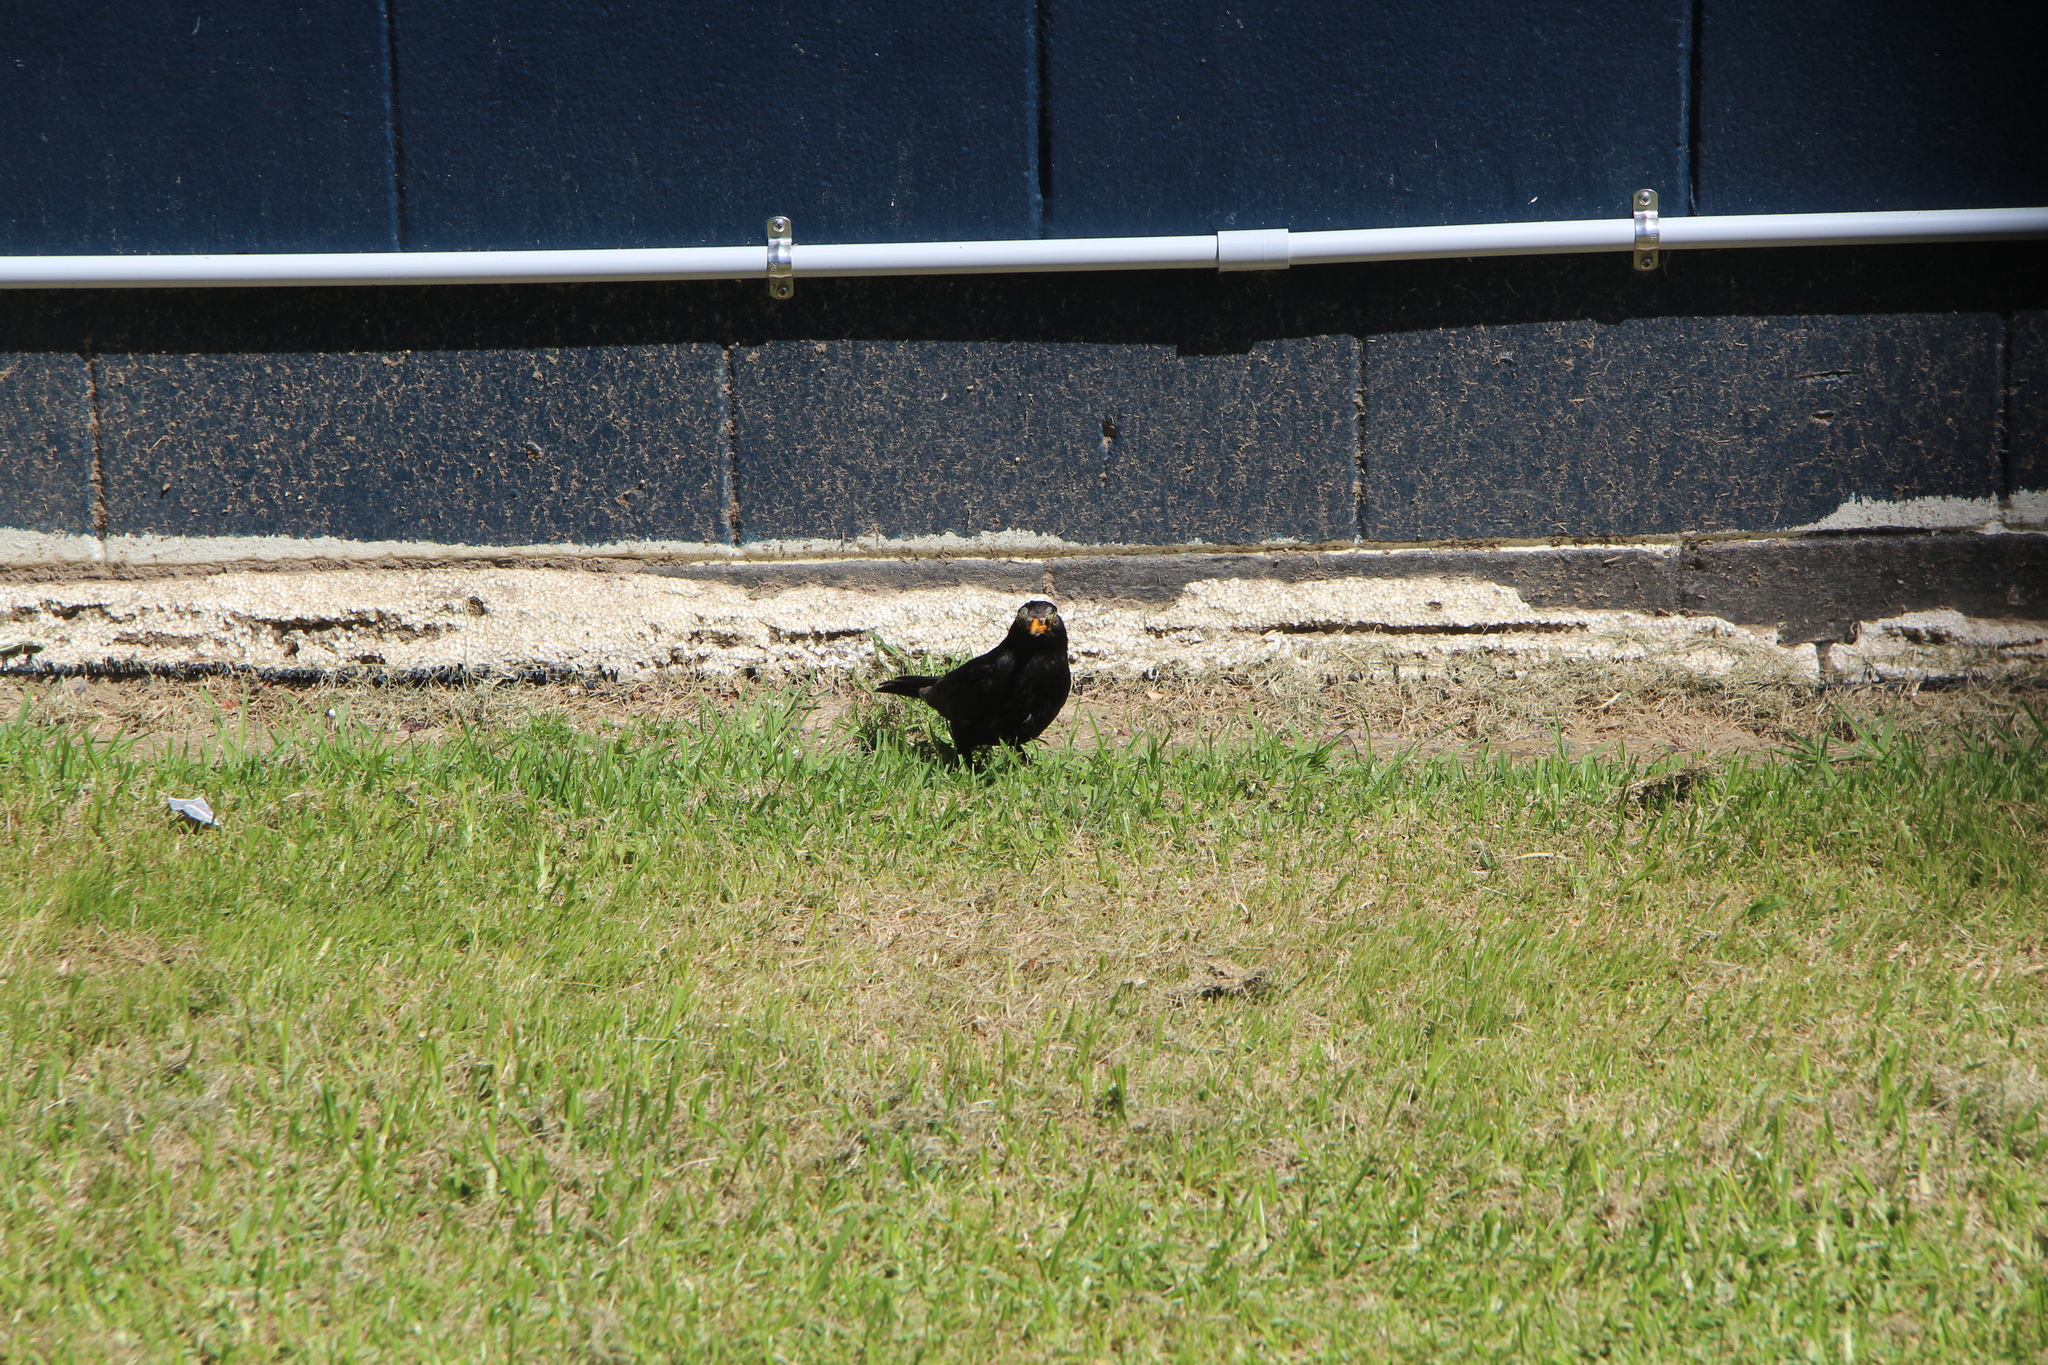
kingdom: Animalia
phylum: Chordata
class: Aves
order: Passeriformes
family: Turdidae
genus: Turdus
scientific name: Turdus merula
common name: Common blackbird
